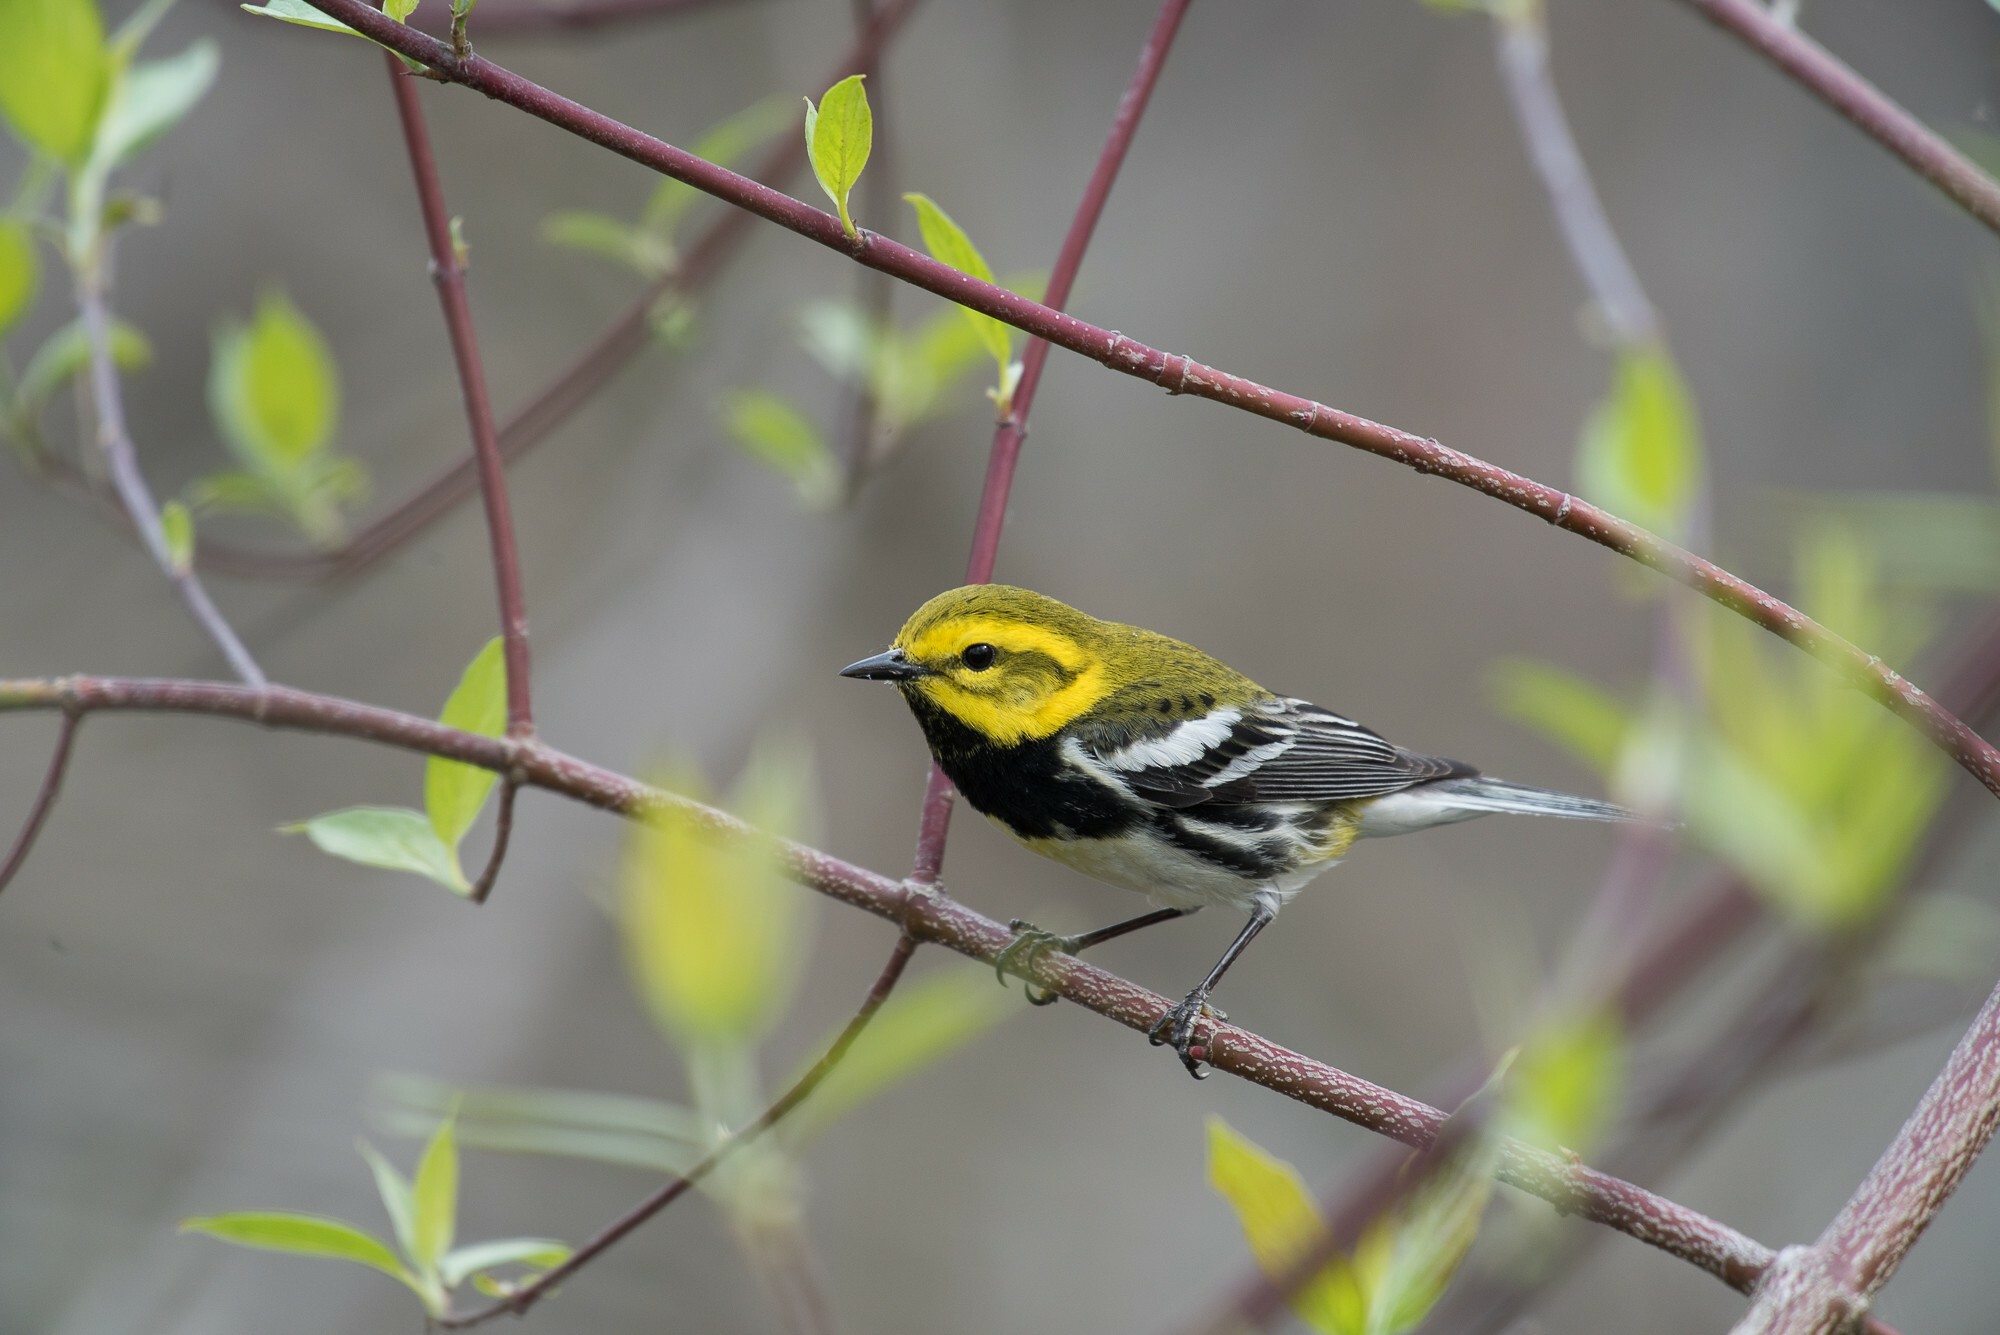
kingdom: Animalia
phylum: Chordata
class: Aves
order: Passeriformes
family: Parulidae
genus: Setophaga
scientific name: Setophaga virens
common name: Black-throated green warbler
